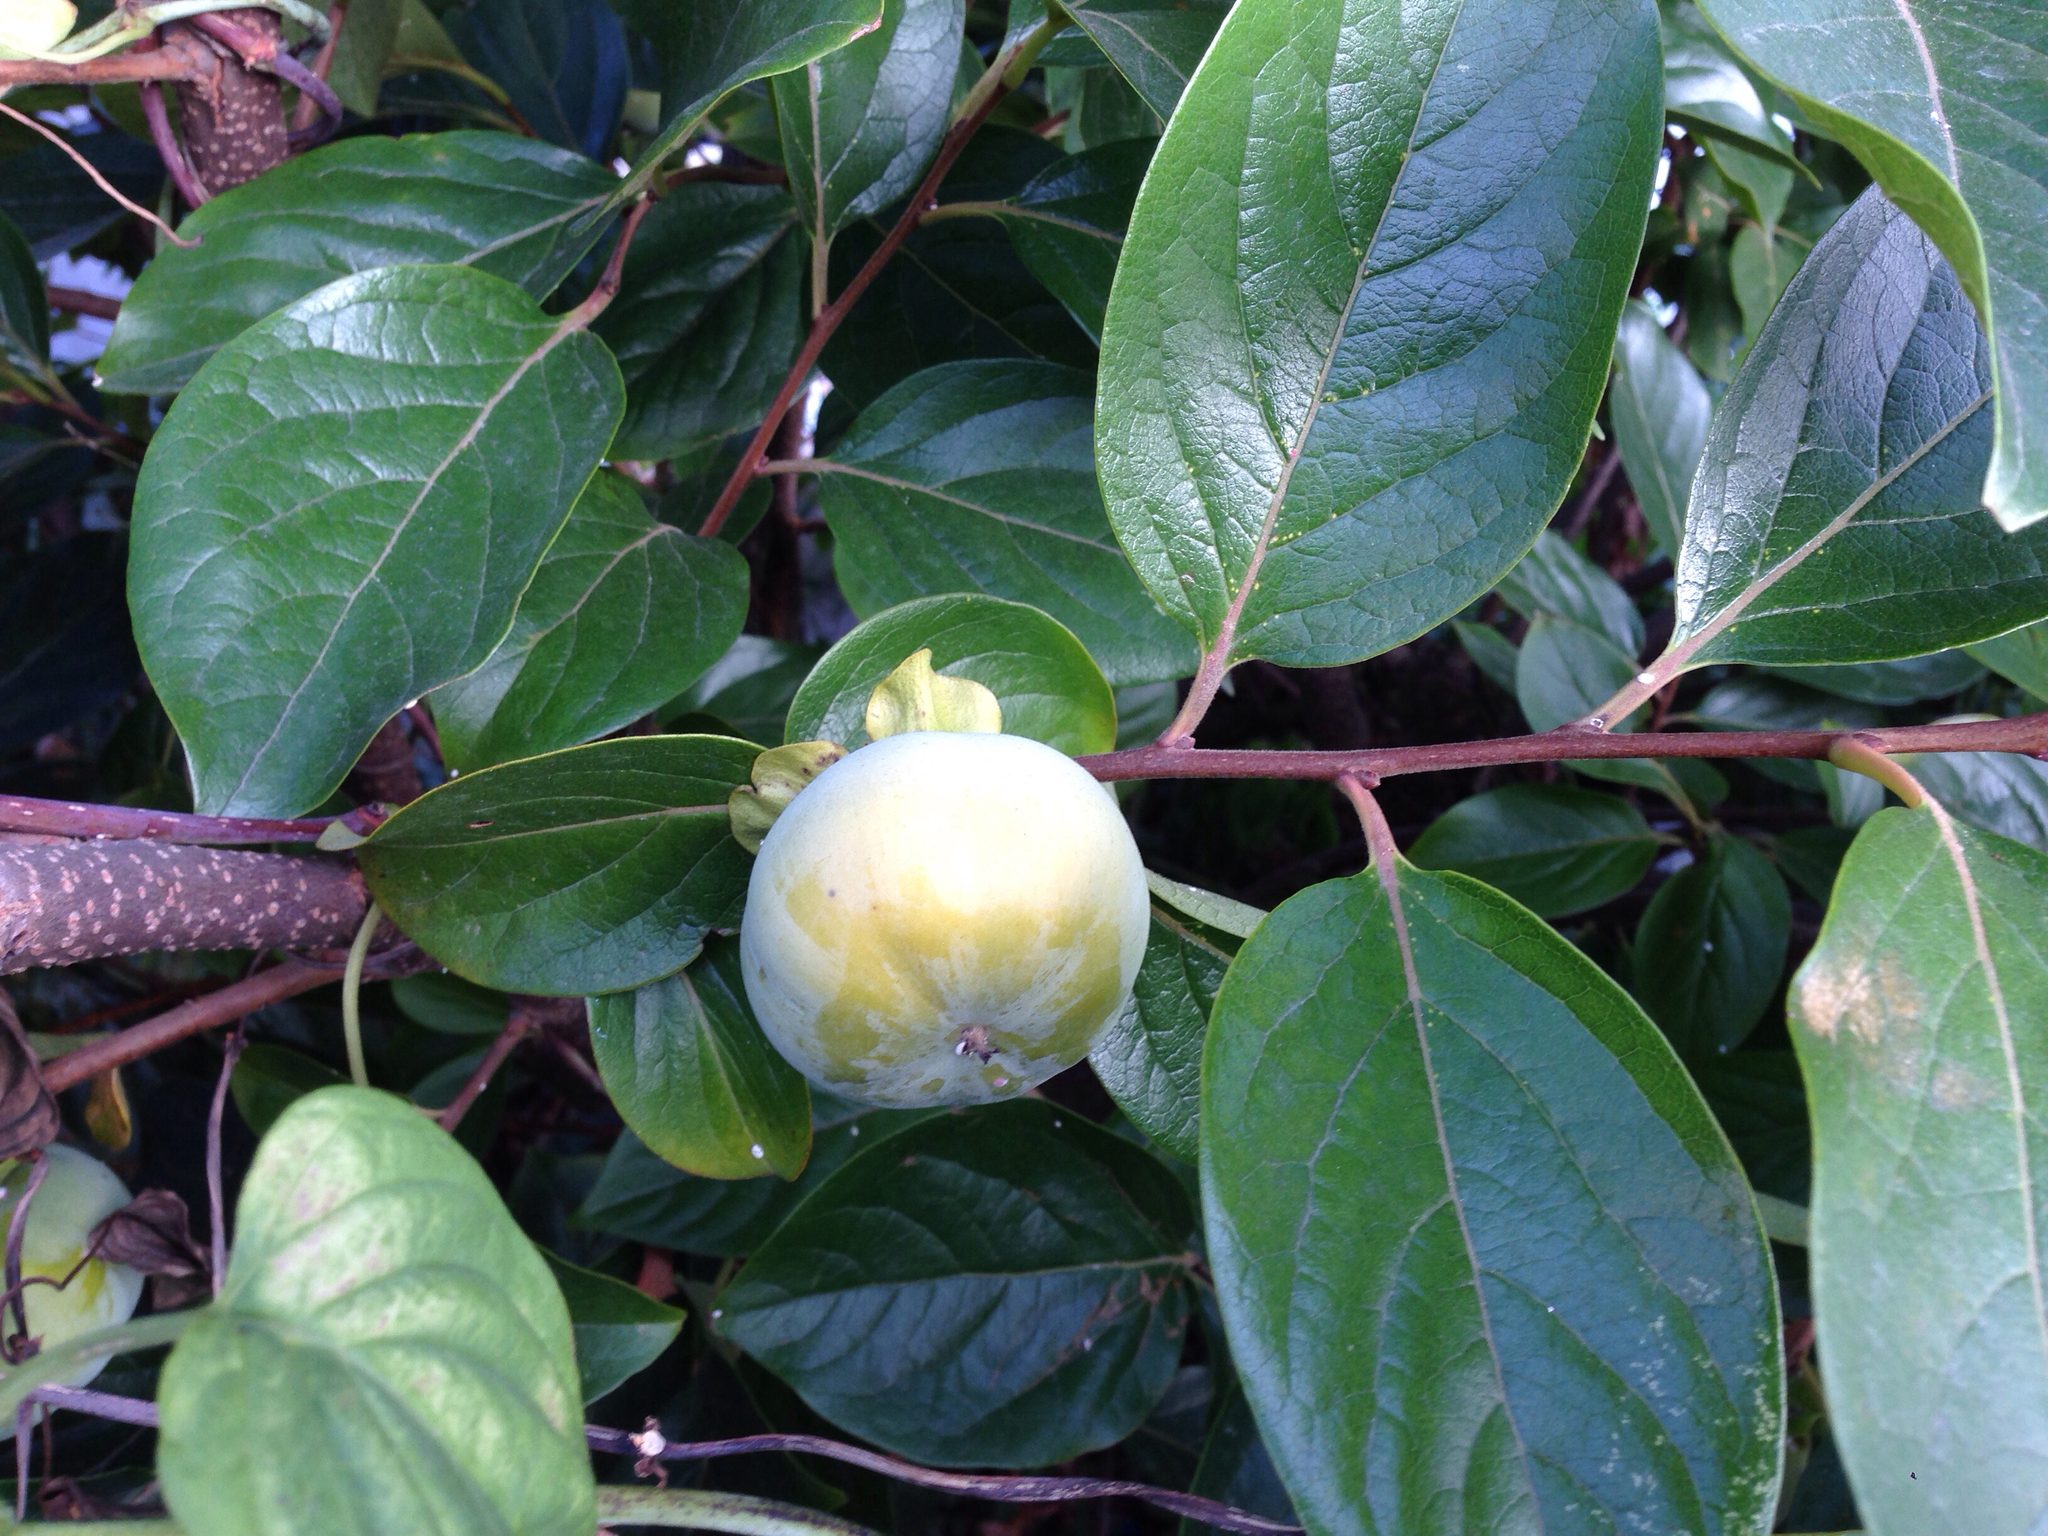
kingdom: Plantae
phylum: Tracheophyta
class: Magnoliopsida
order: Ericales
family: Ebenaceae
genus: Diospyros
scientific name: Diospyros kaki
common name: Persimmon
